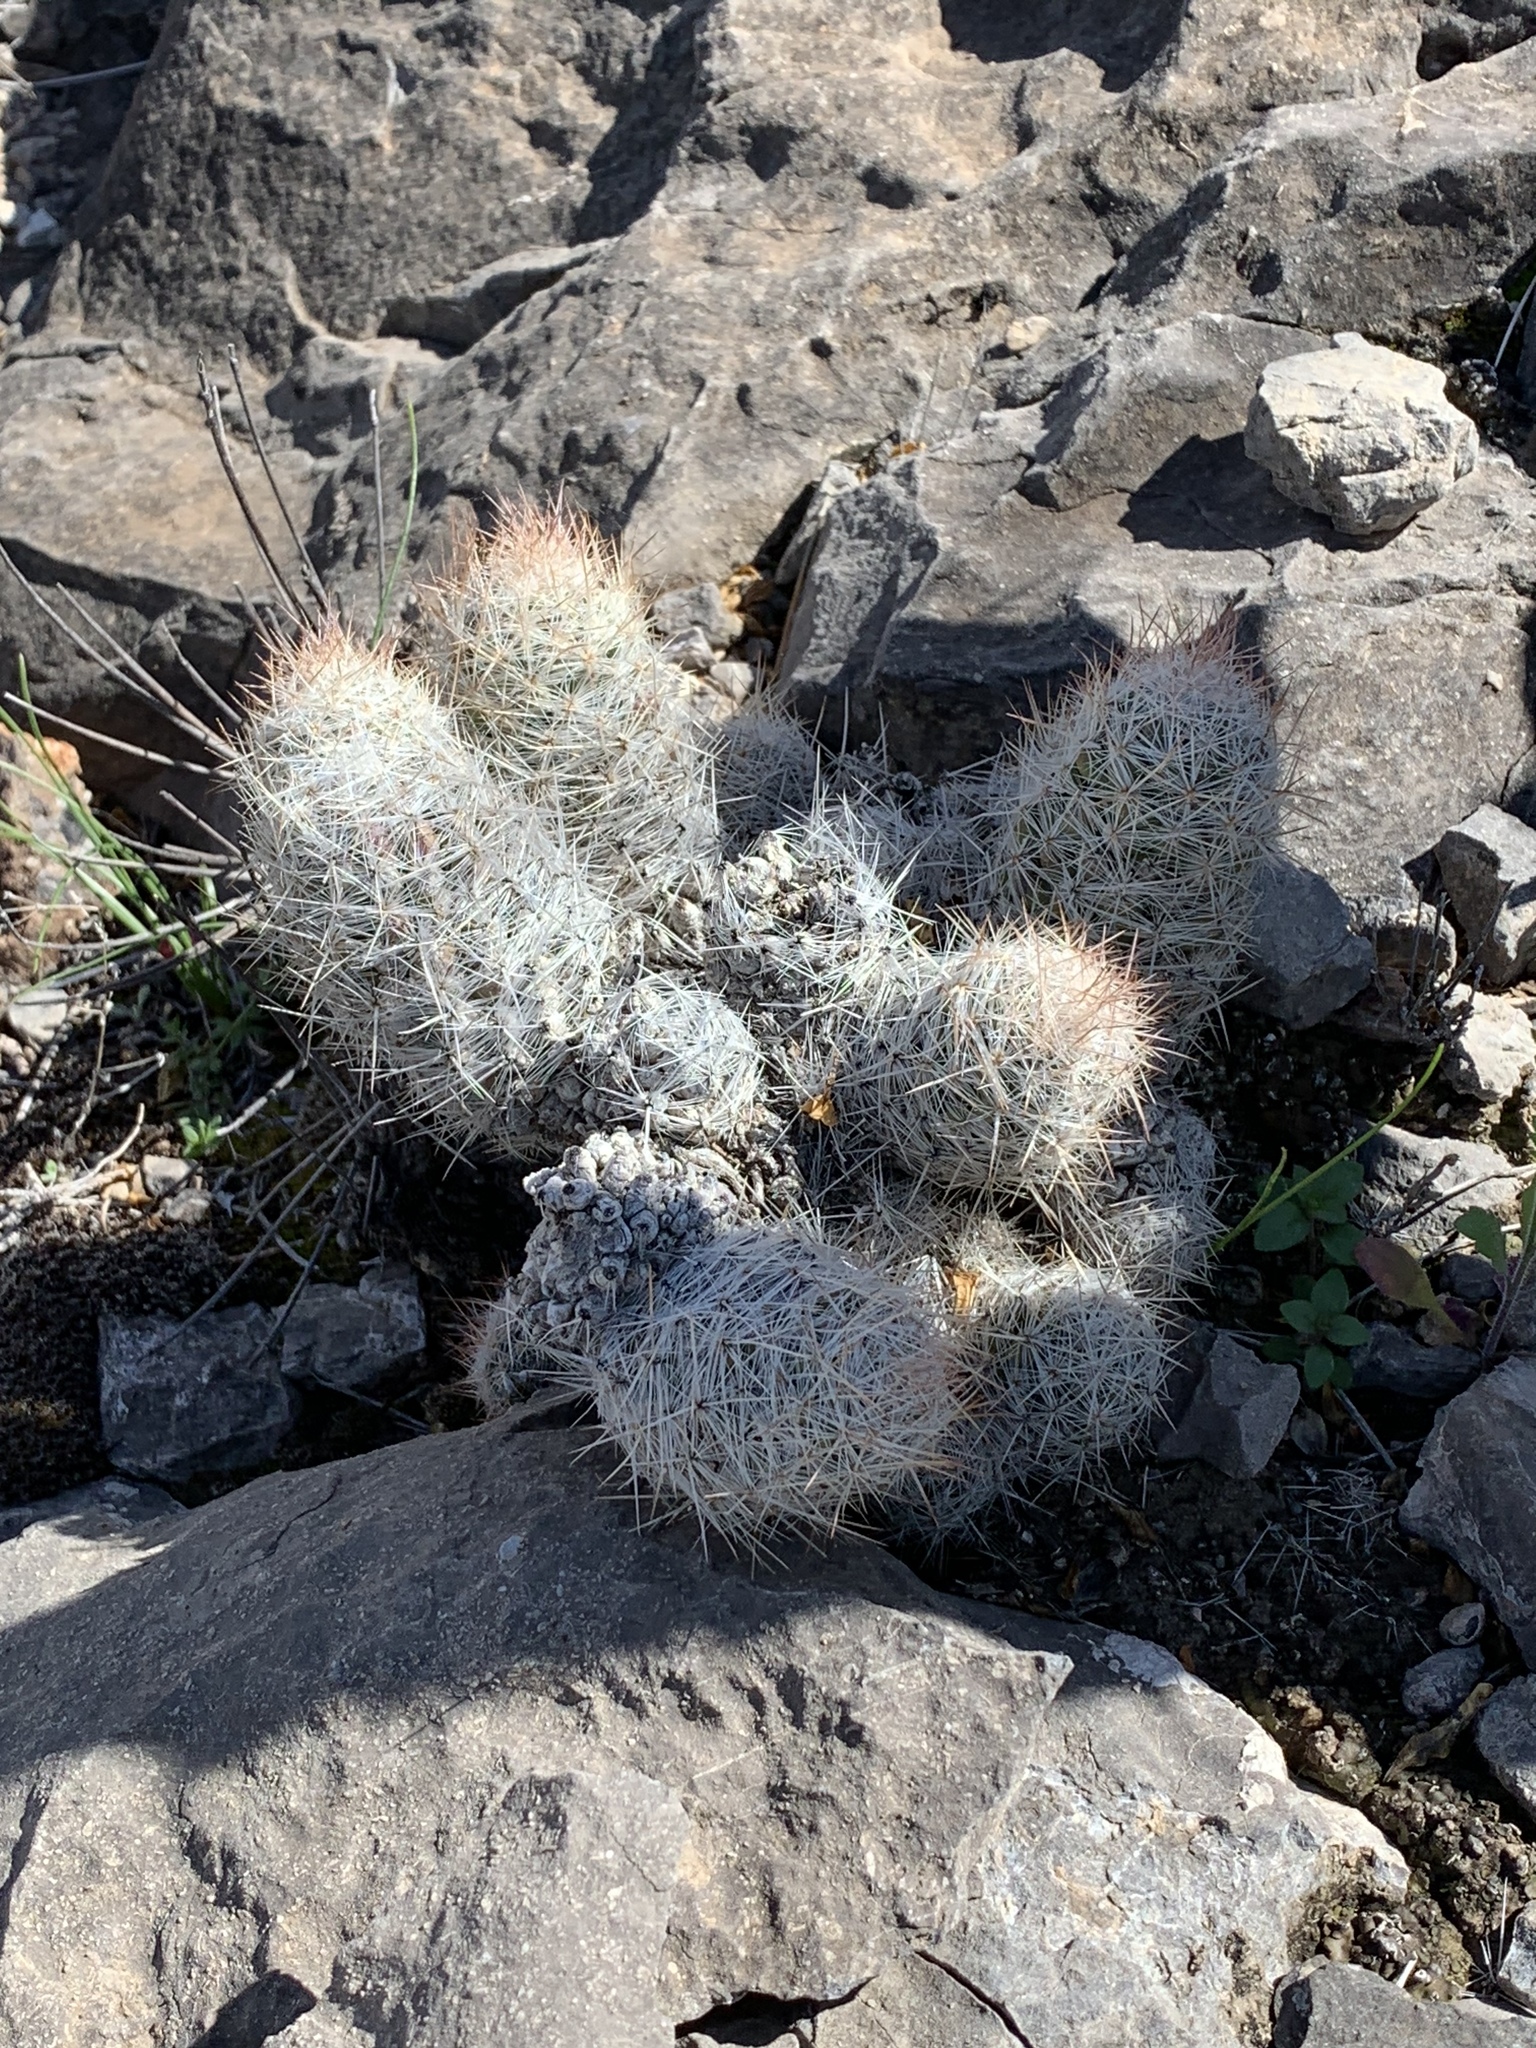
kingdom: Plantae
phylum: Tracheophyta
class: Magnoliopsida
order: Caryophyllales
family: Cactaceae
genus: Pelecyphora
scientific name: Pelecyphora tuberculosa
